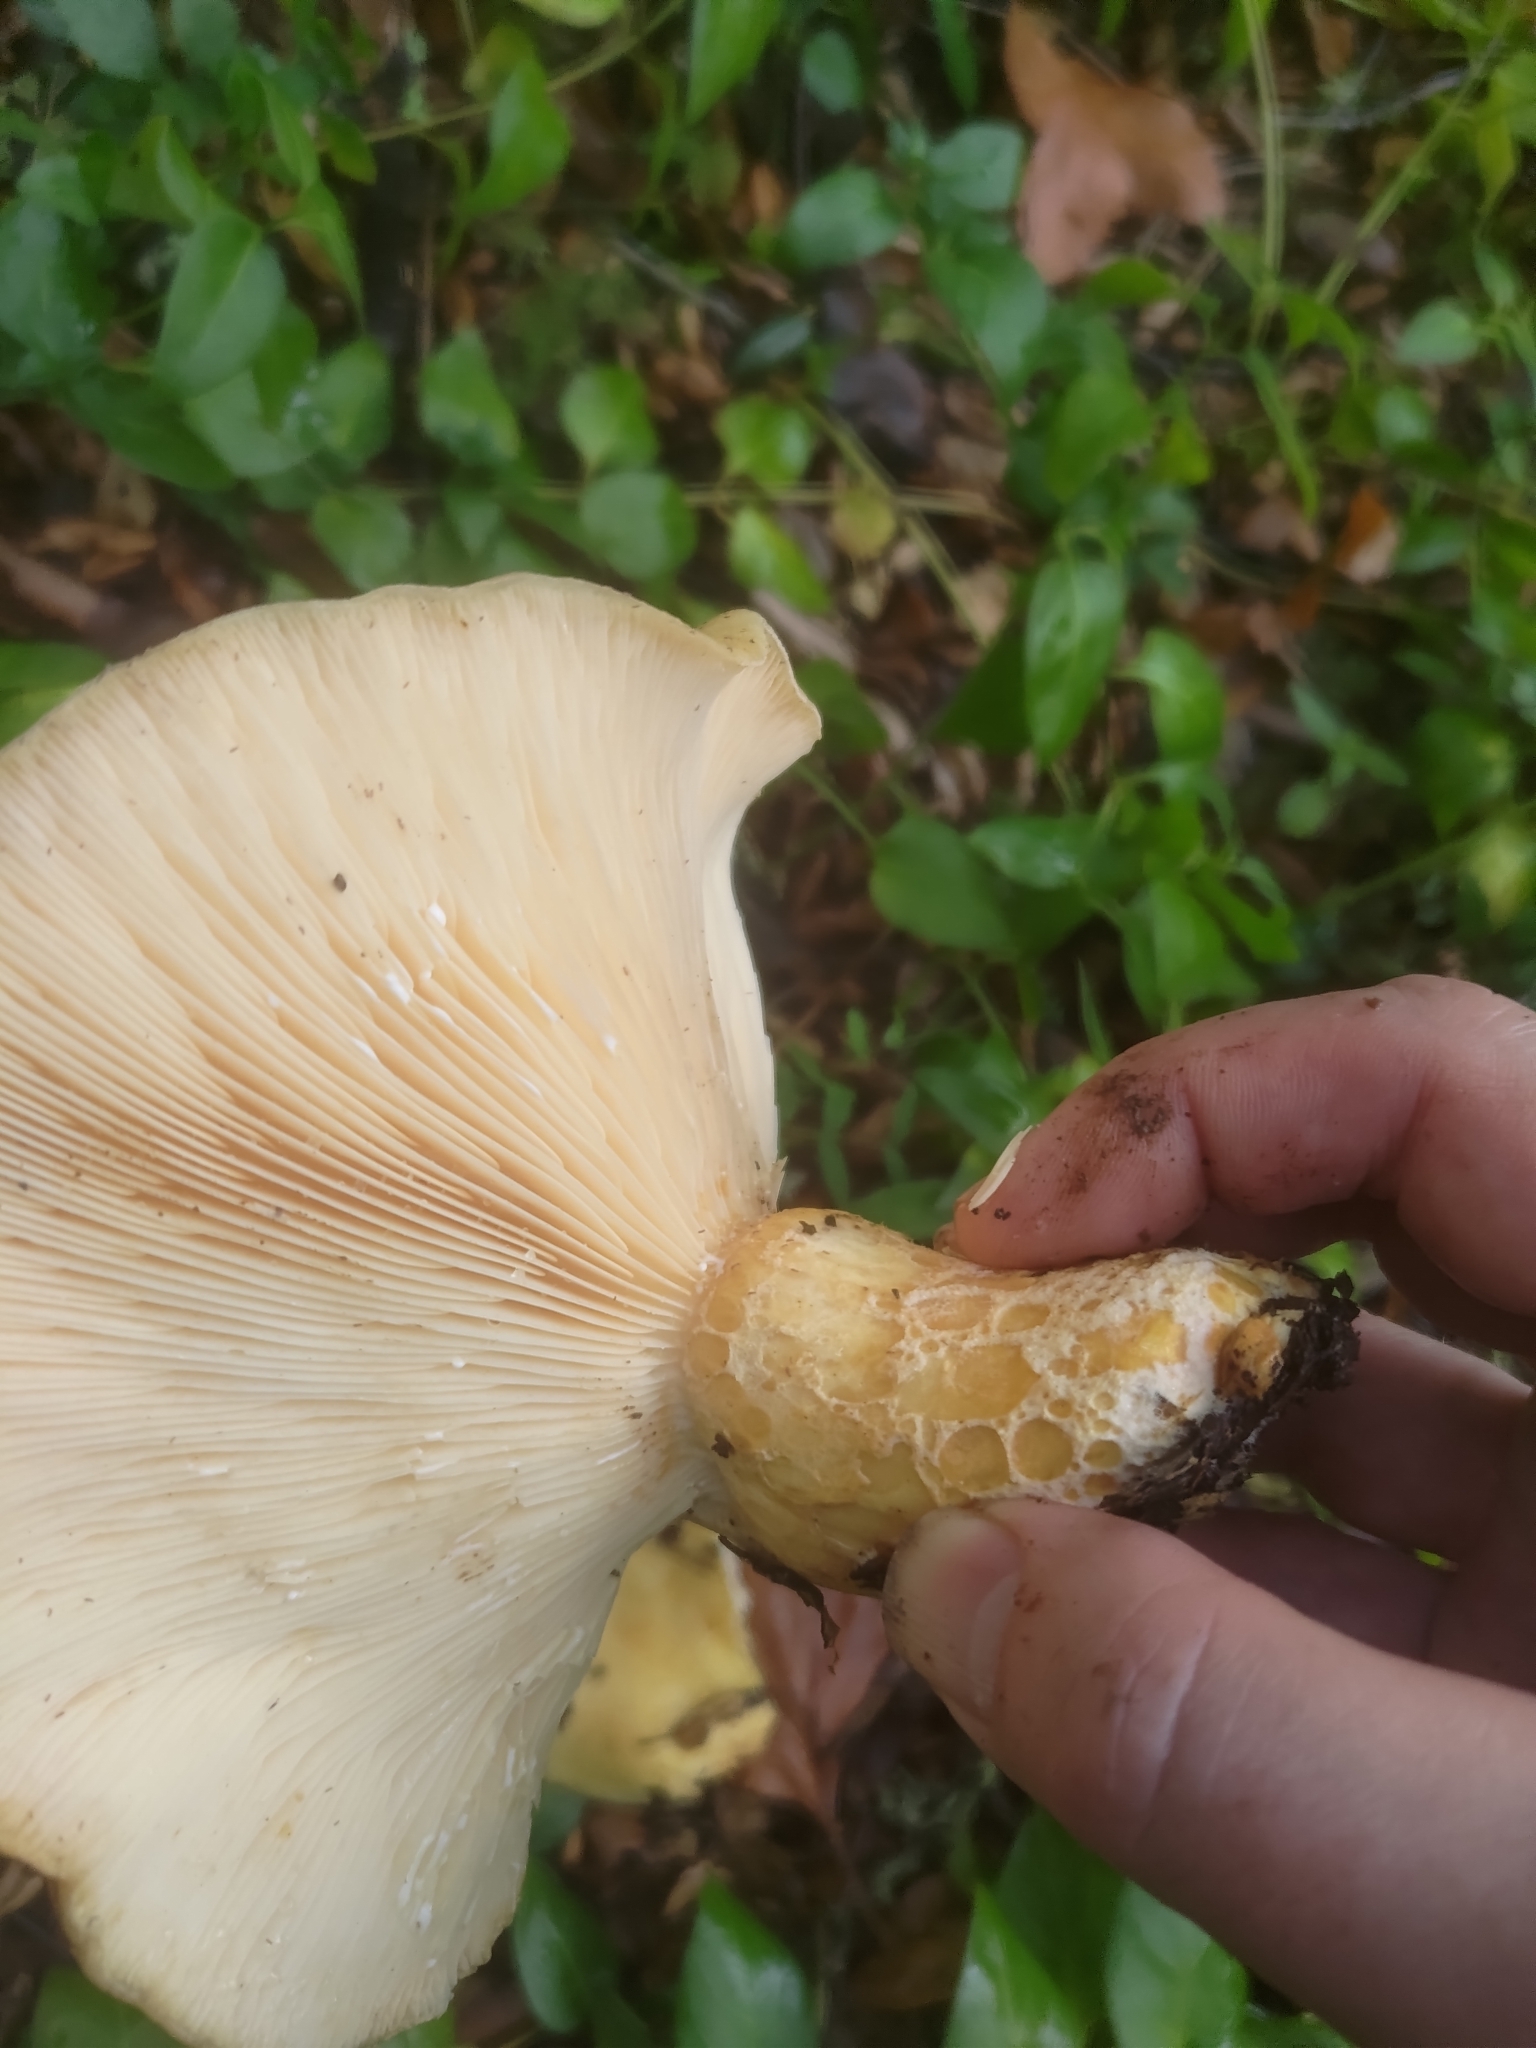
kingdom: Fungi
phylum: Basidiomycota
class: Agaricomycetes
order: Russulales
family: Russulaceae
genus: Lactarius
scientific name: Lactarius alnicola
